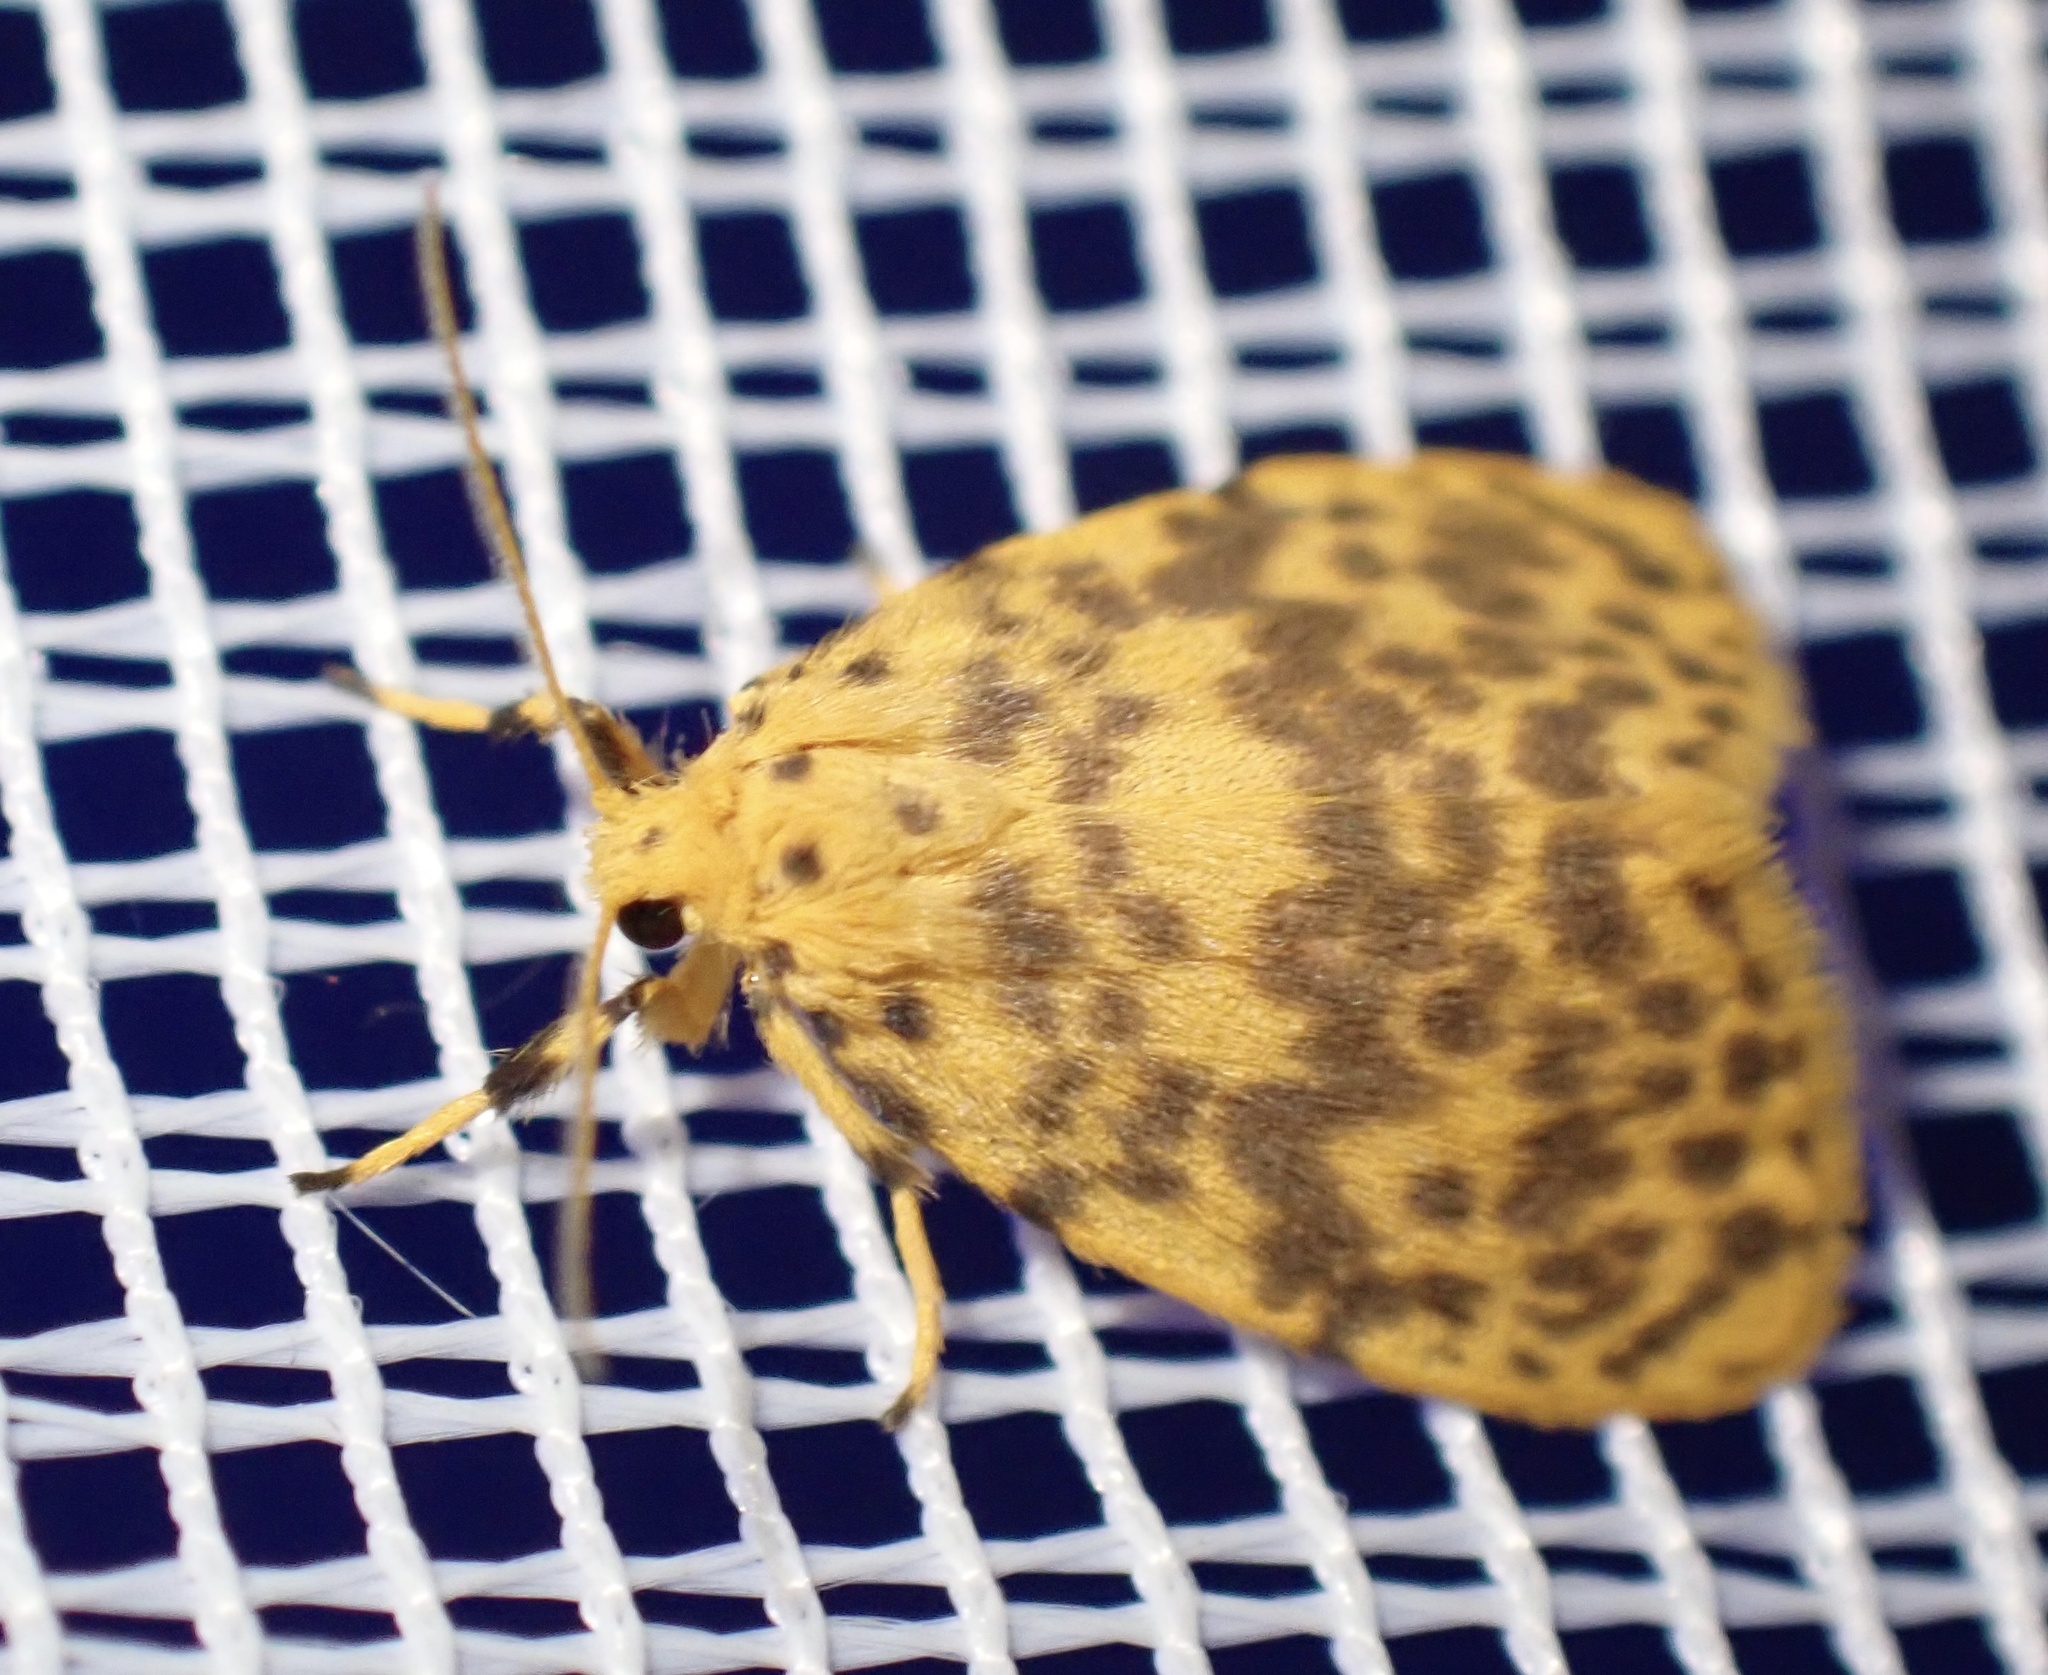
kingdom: Animalia
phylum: Arthropoda
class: Insecta
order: Lepidoptera
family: Erebidae
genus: Afrasura
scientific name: Afrasura rivulosa
